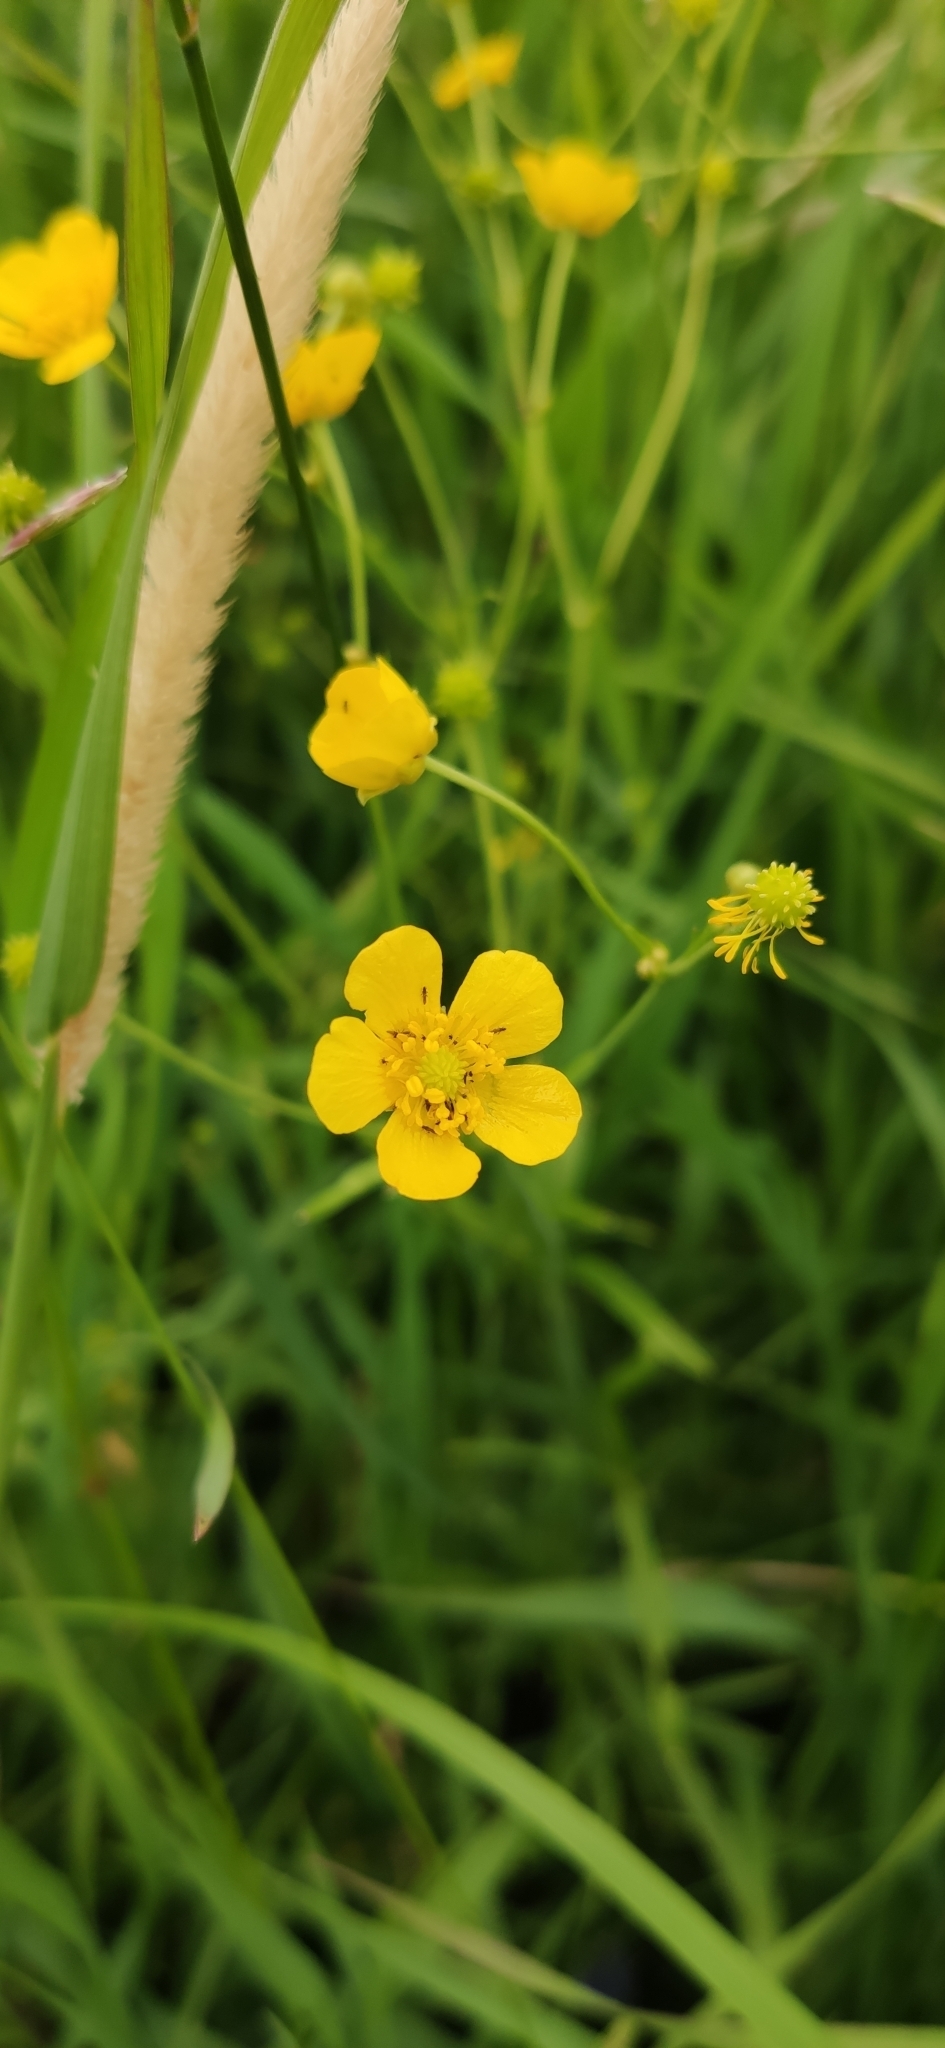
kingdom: Plantae
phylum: Tracheophyta
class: Magnoliopsida
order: Ranunculales
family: Ranunculaceae
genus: Ranunculus
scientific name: Ranunculus acris
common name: Meadow buttercup
